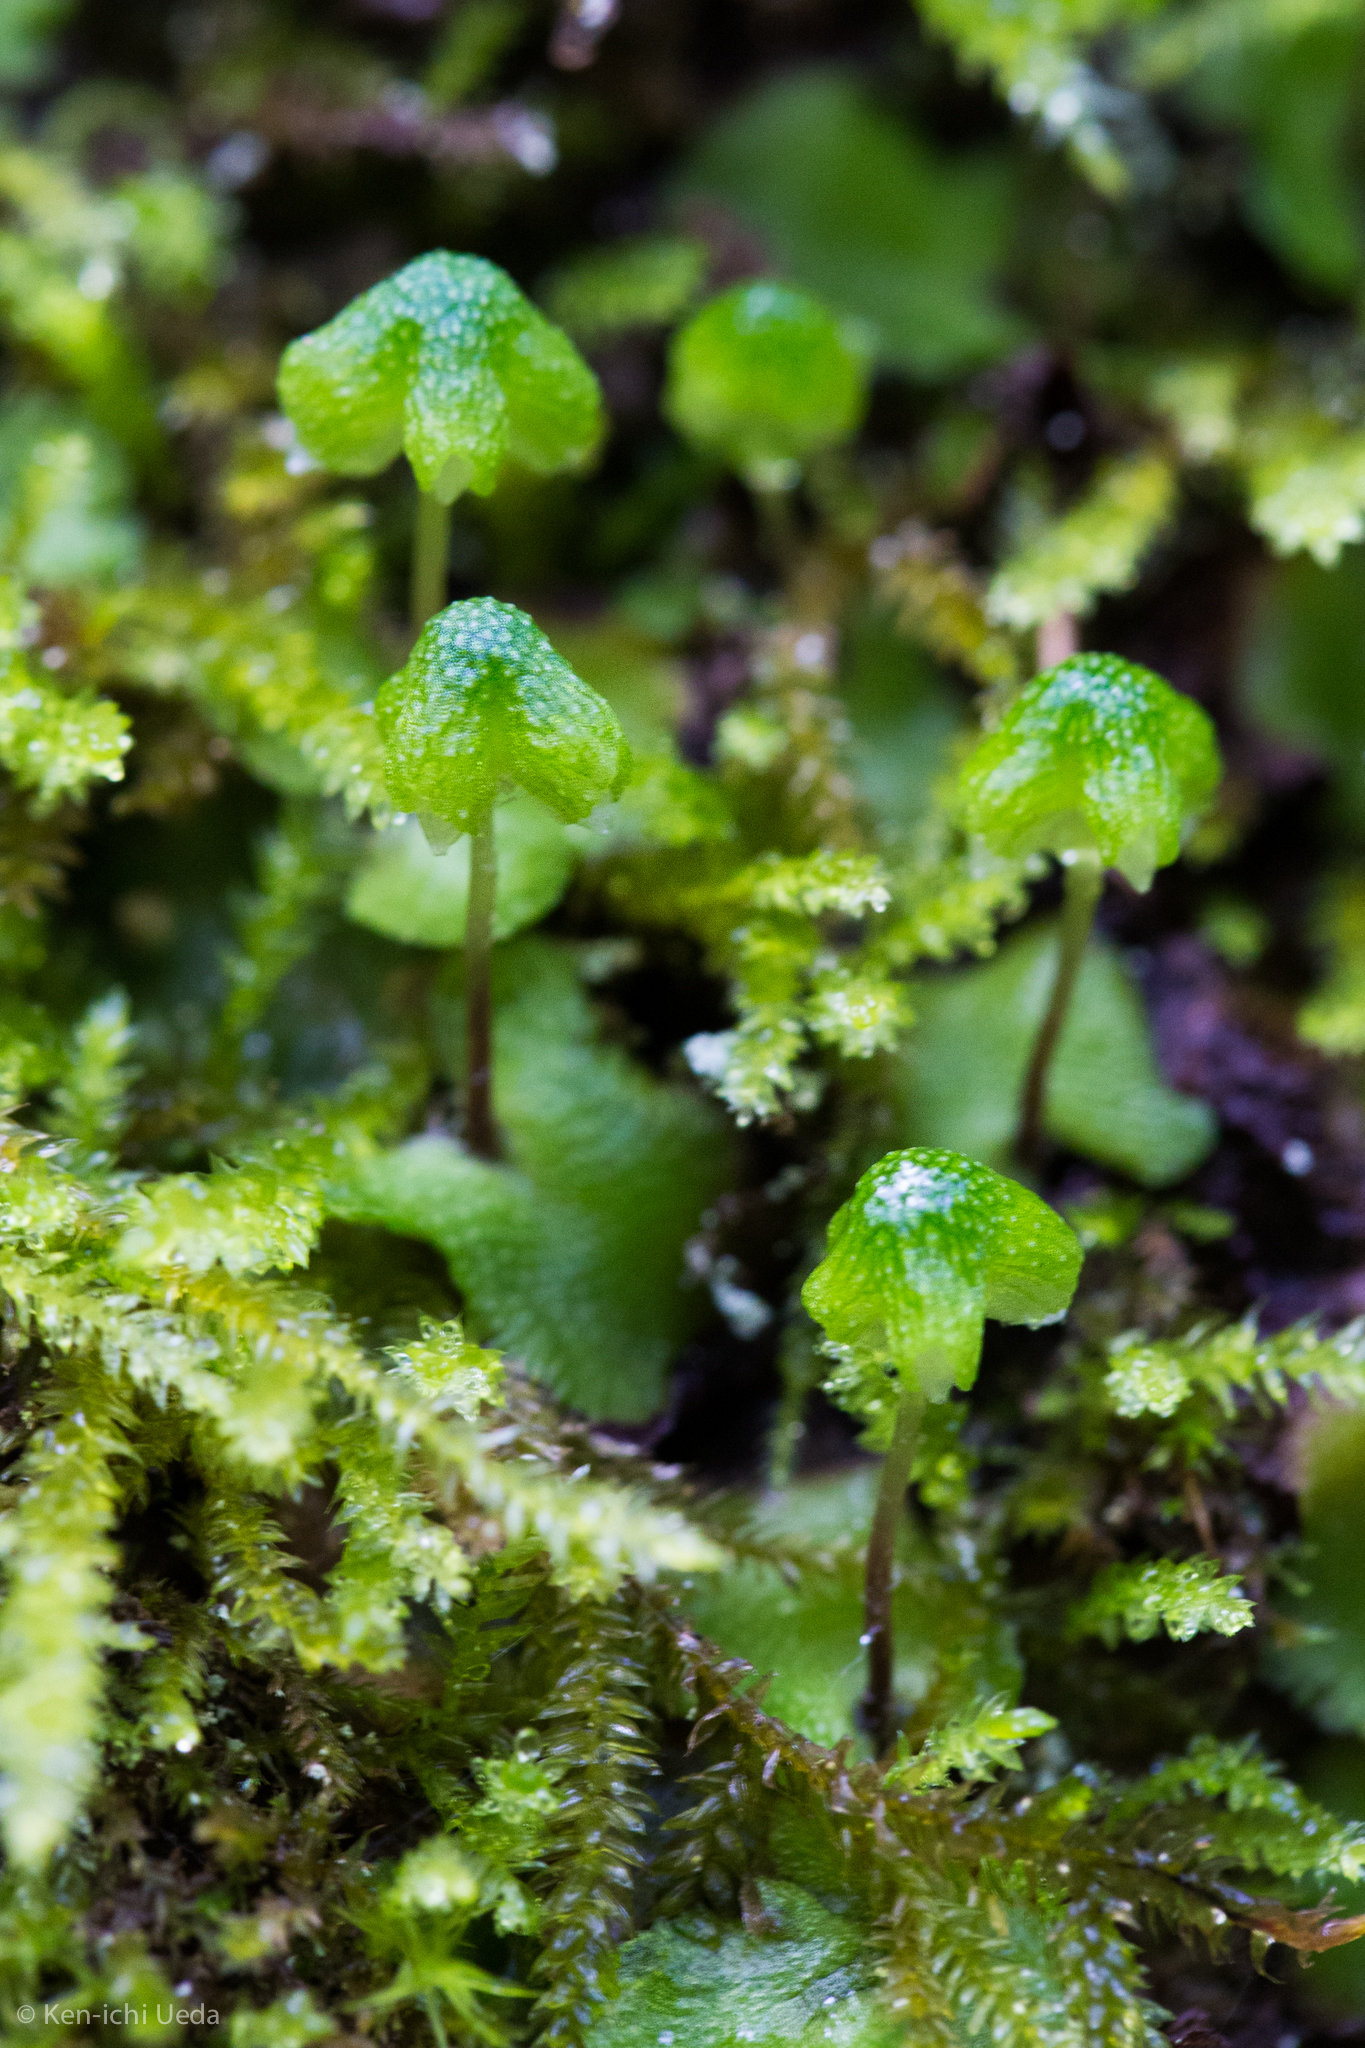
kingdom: Plantae
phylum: Marchantiophyta
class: Marchantiopsida
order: Marchantiales
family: Aytoniaceae
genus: Asterella
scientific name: Asterella californica
